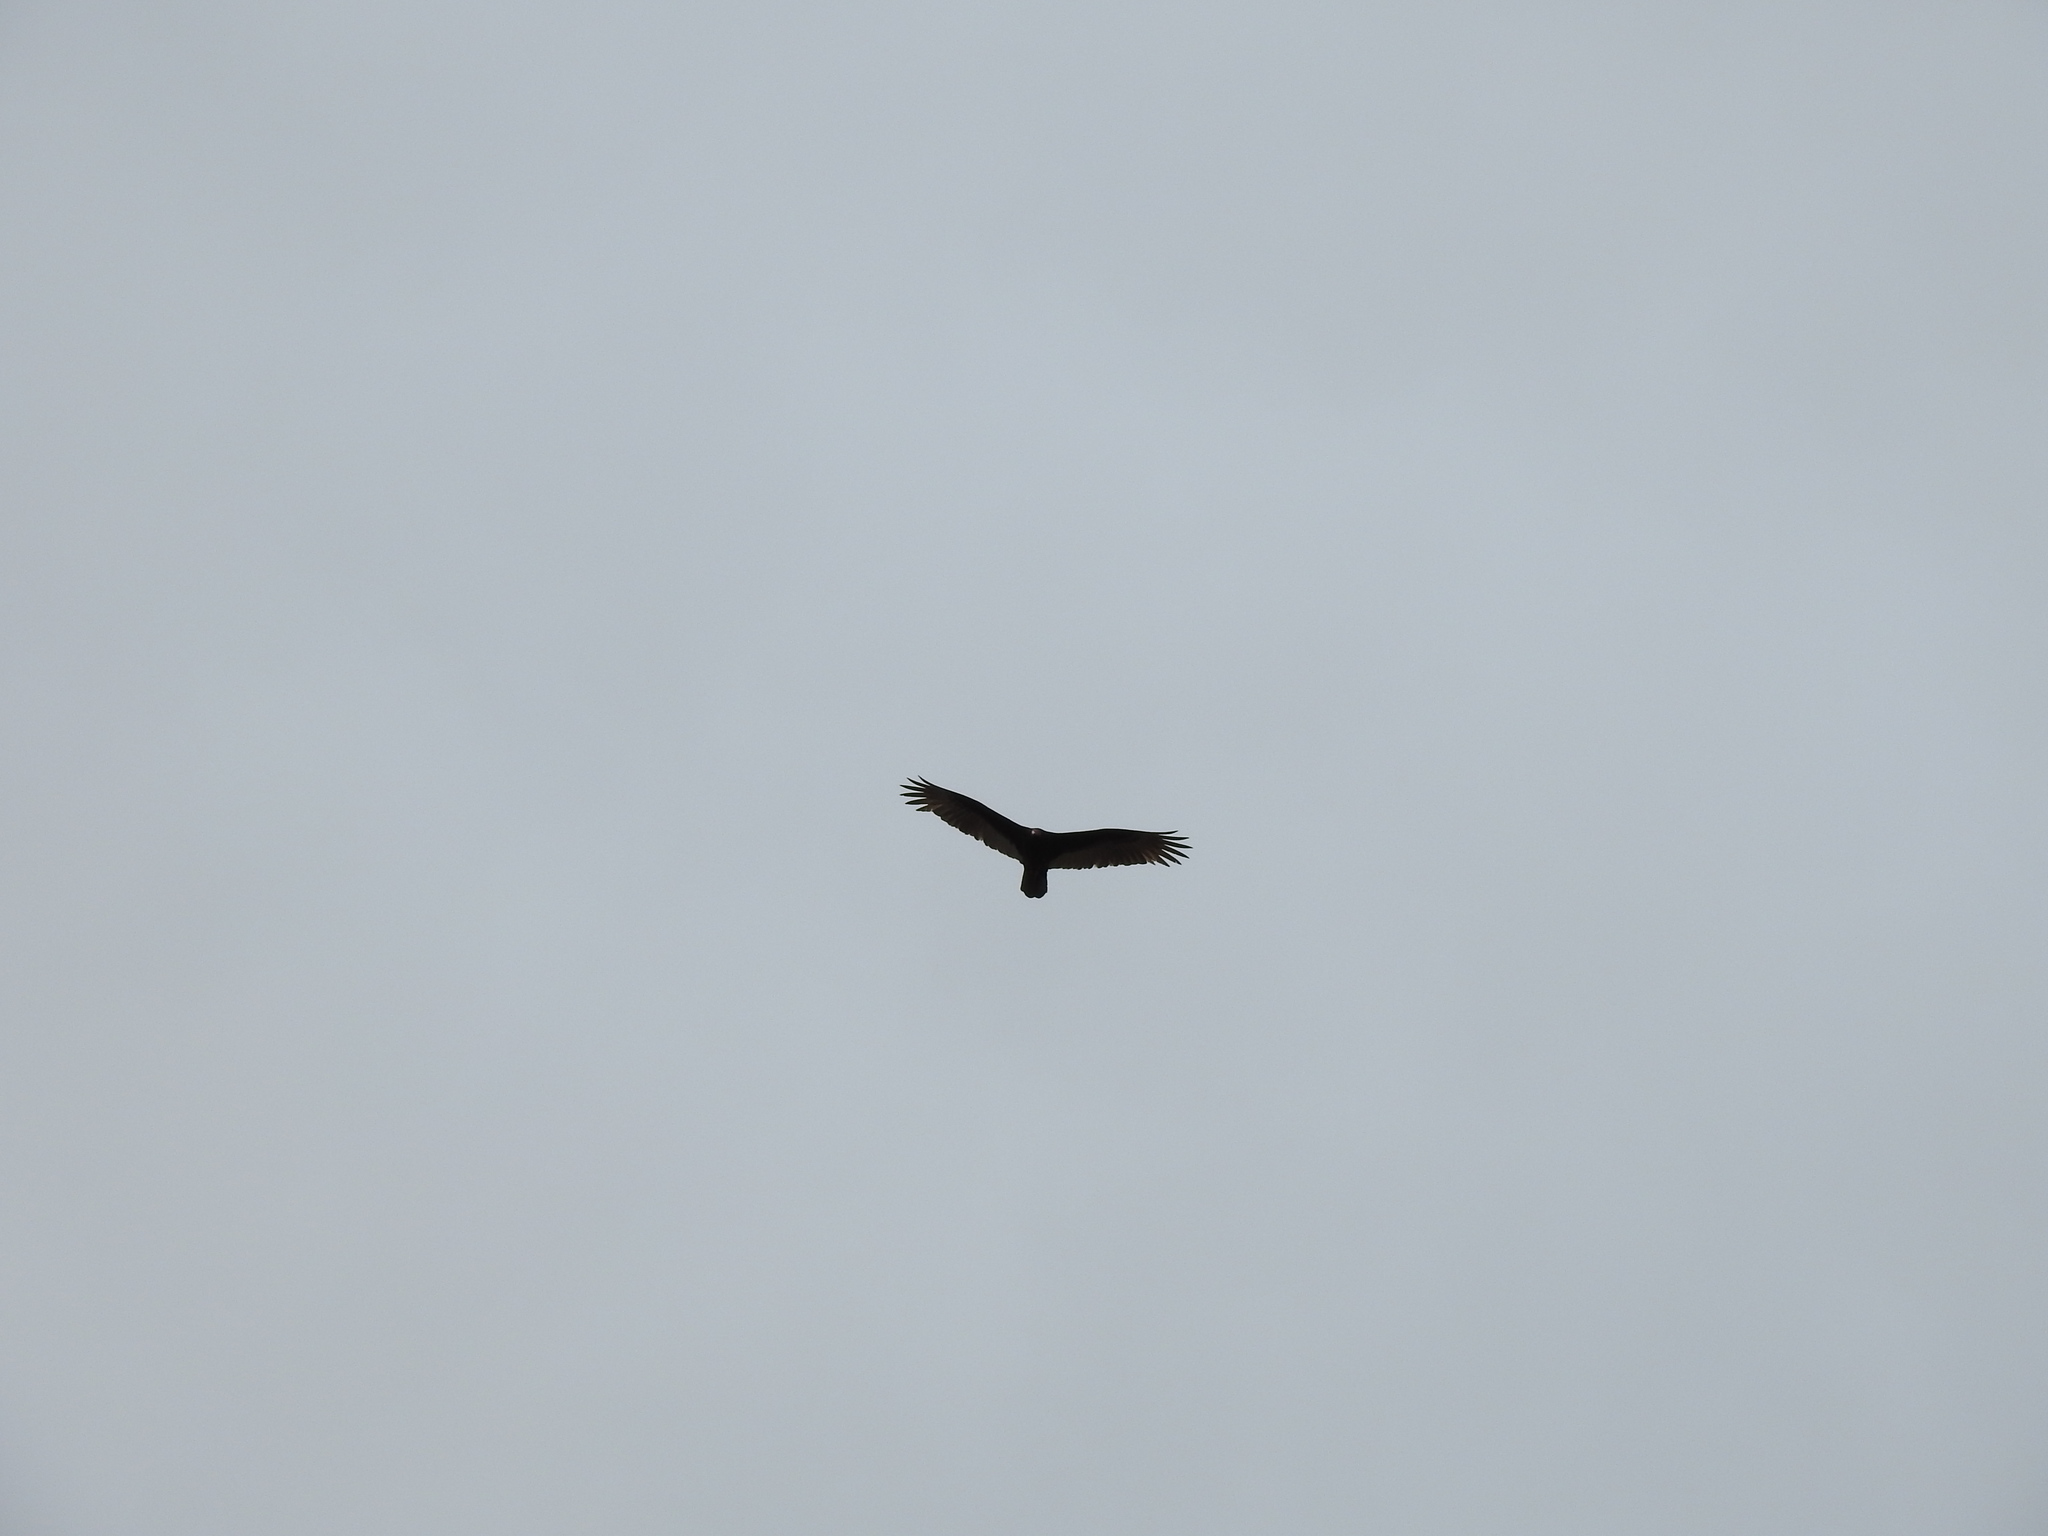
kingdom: Animalia
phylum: Chordata
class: Aves
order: Accipitriformes
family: Cathartidae
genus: Cathartes
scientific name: Cathartes aura
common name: Turkey vulture
